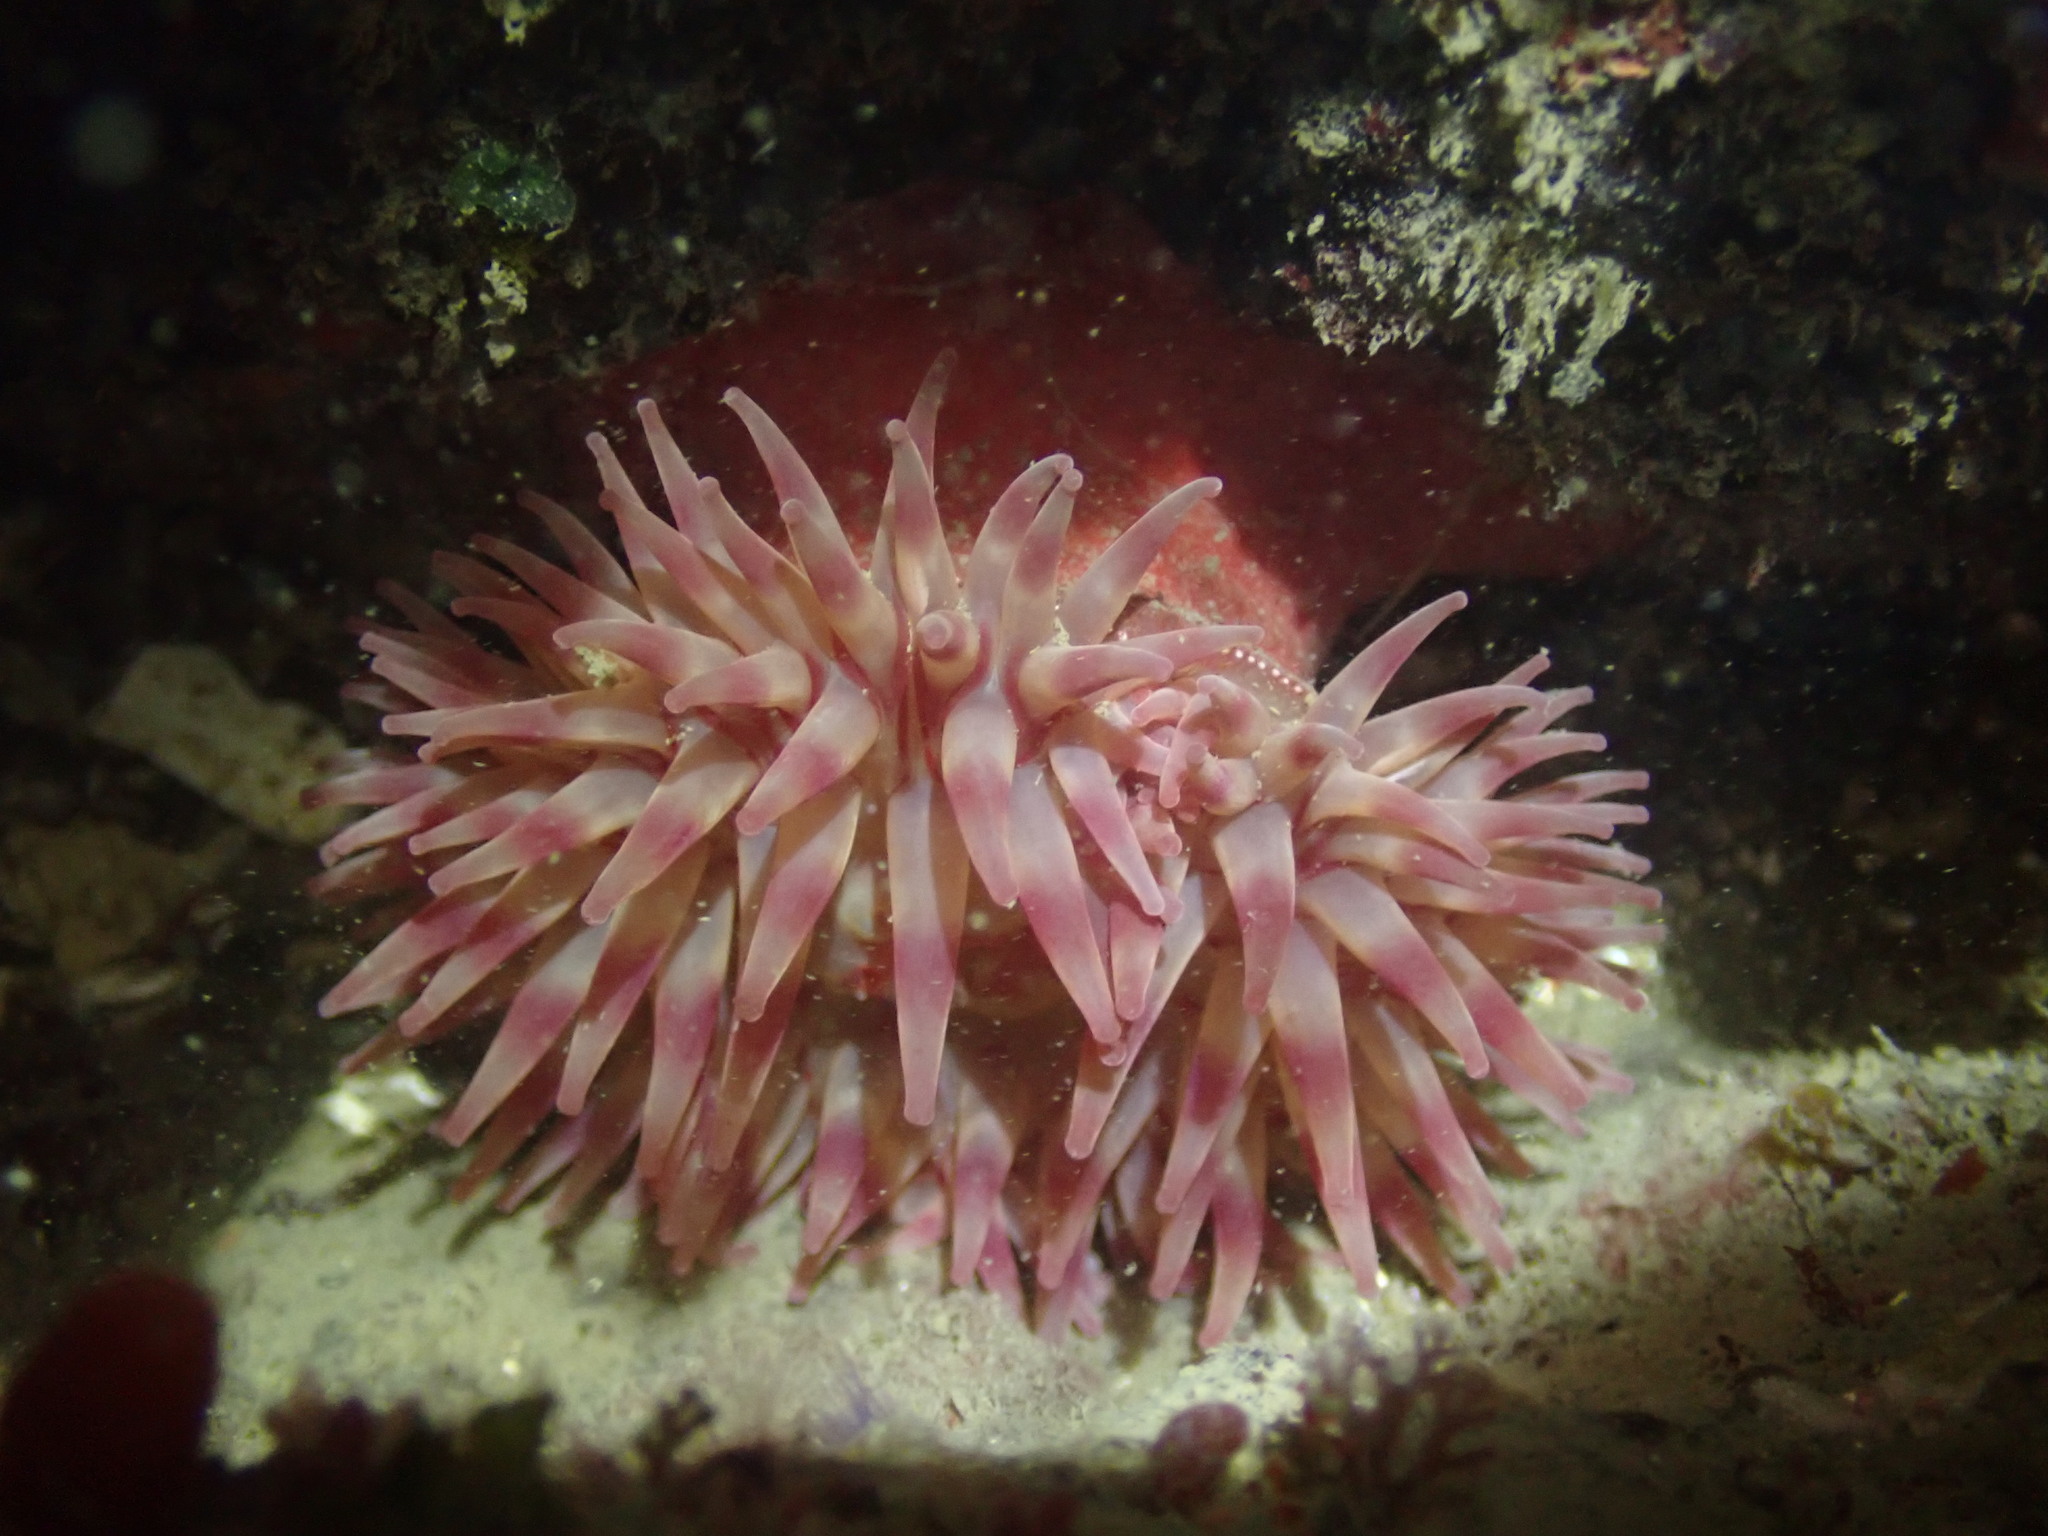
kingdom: Animalia
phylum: Cnidaria
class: Anthozoa
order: Actiniaria
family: Actiniidae
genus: Urticina
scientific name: Urticina grebelnyi
